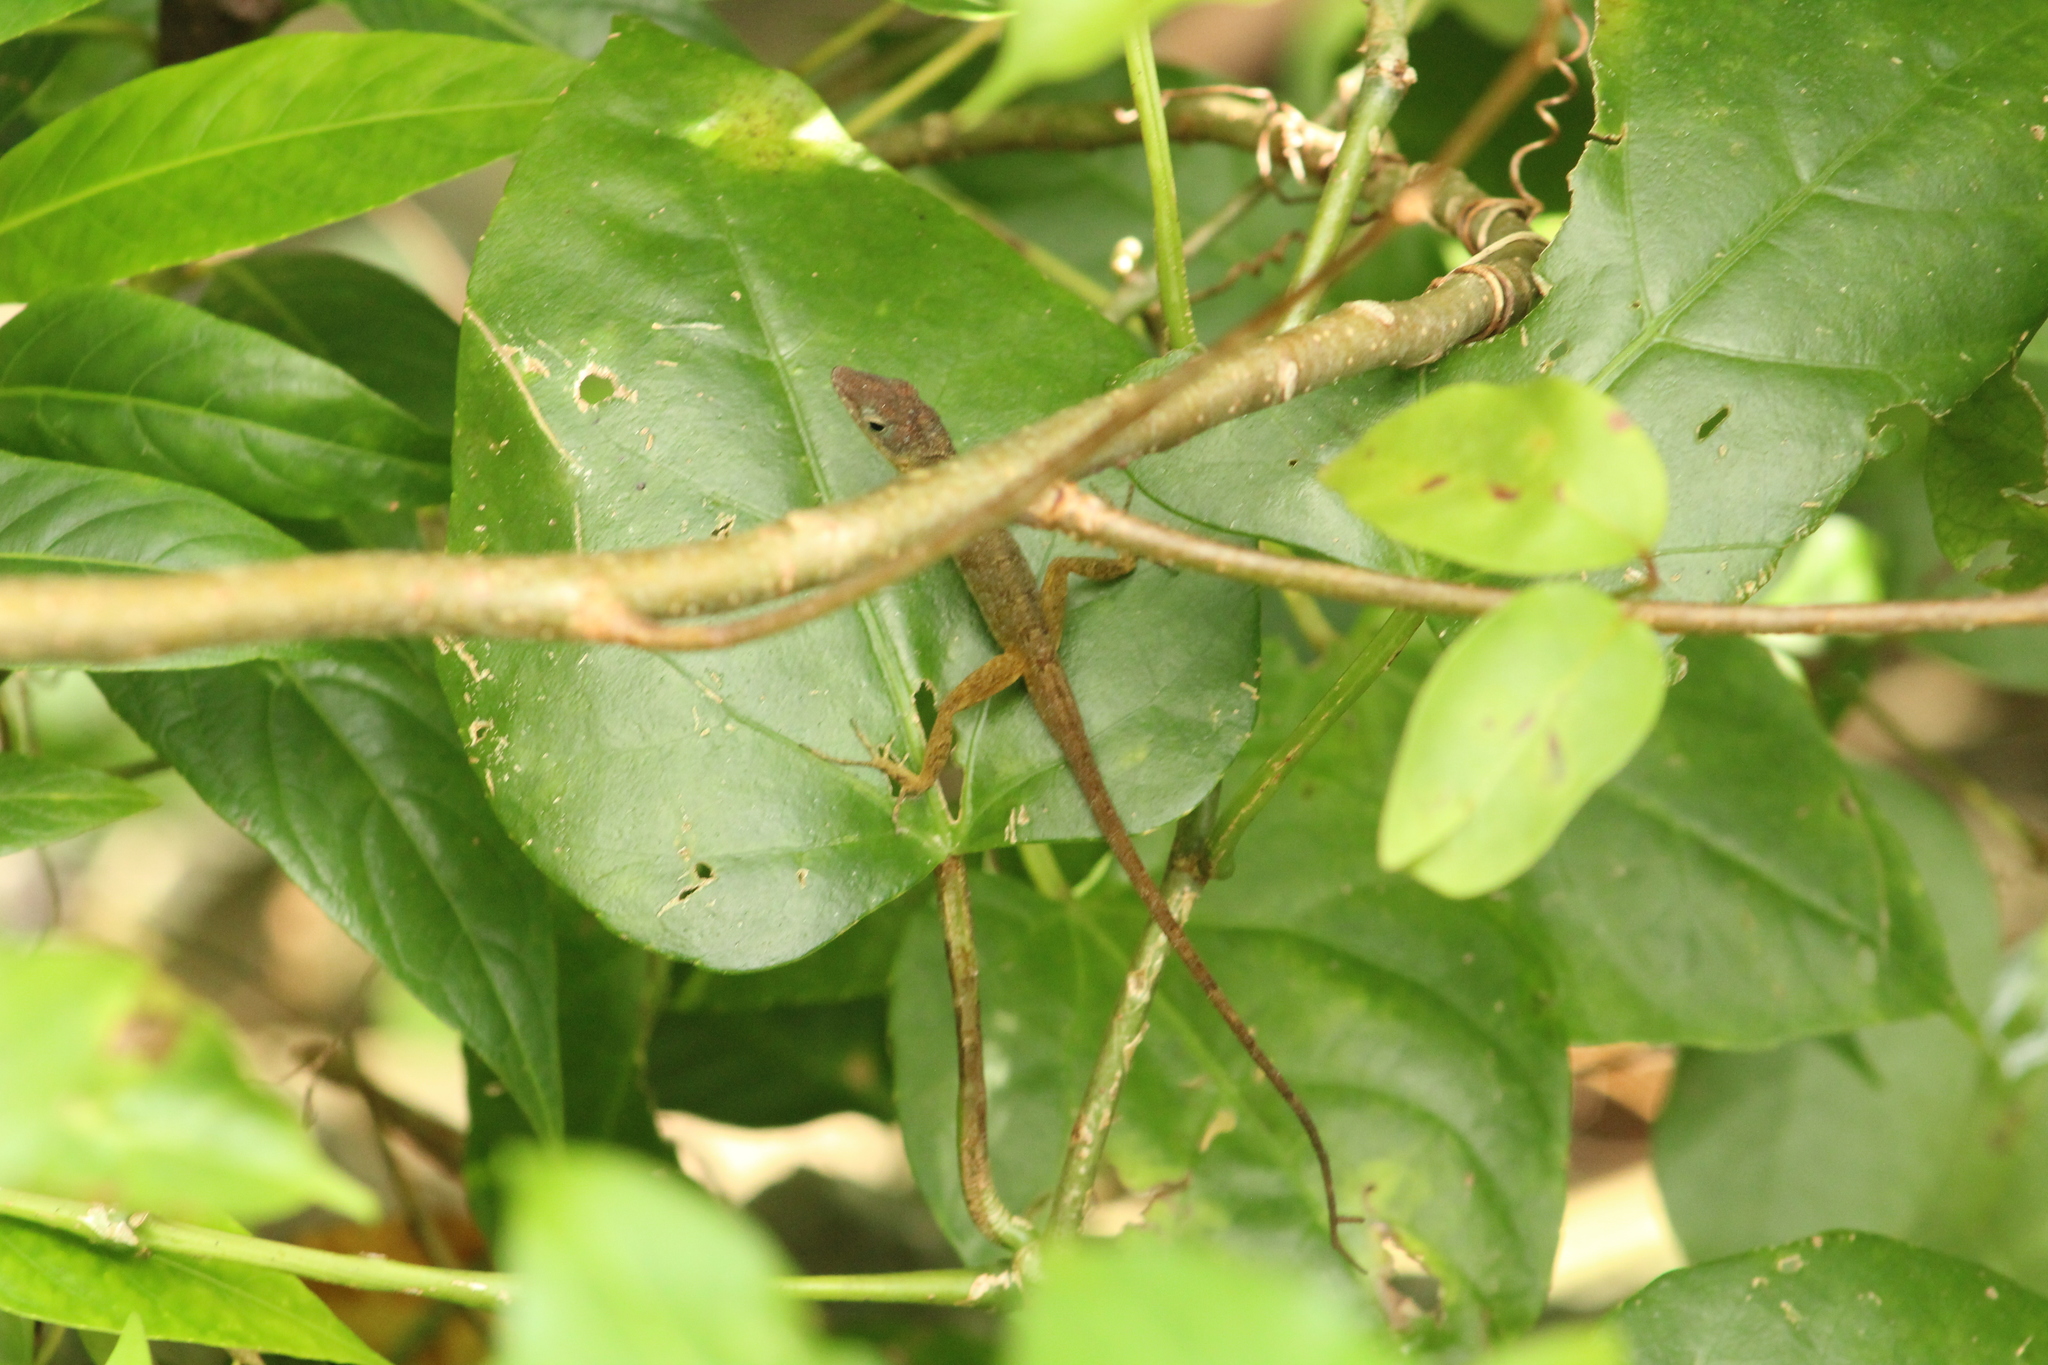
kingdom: Animalia
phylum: Chordata
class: Squamata
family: Dactyloidae
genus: Anolis
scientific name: Anolis pogus
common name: Anguilla bank bush anole
